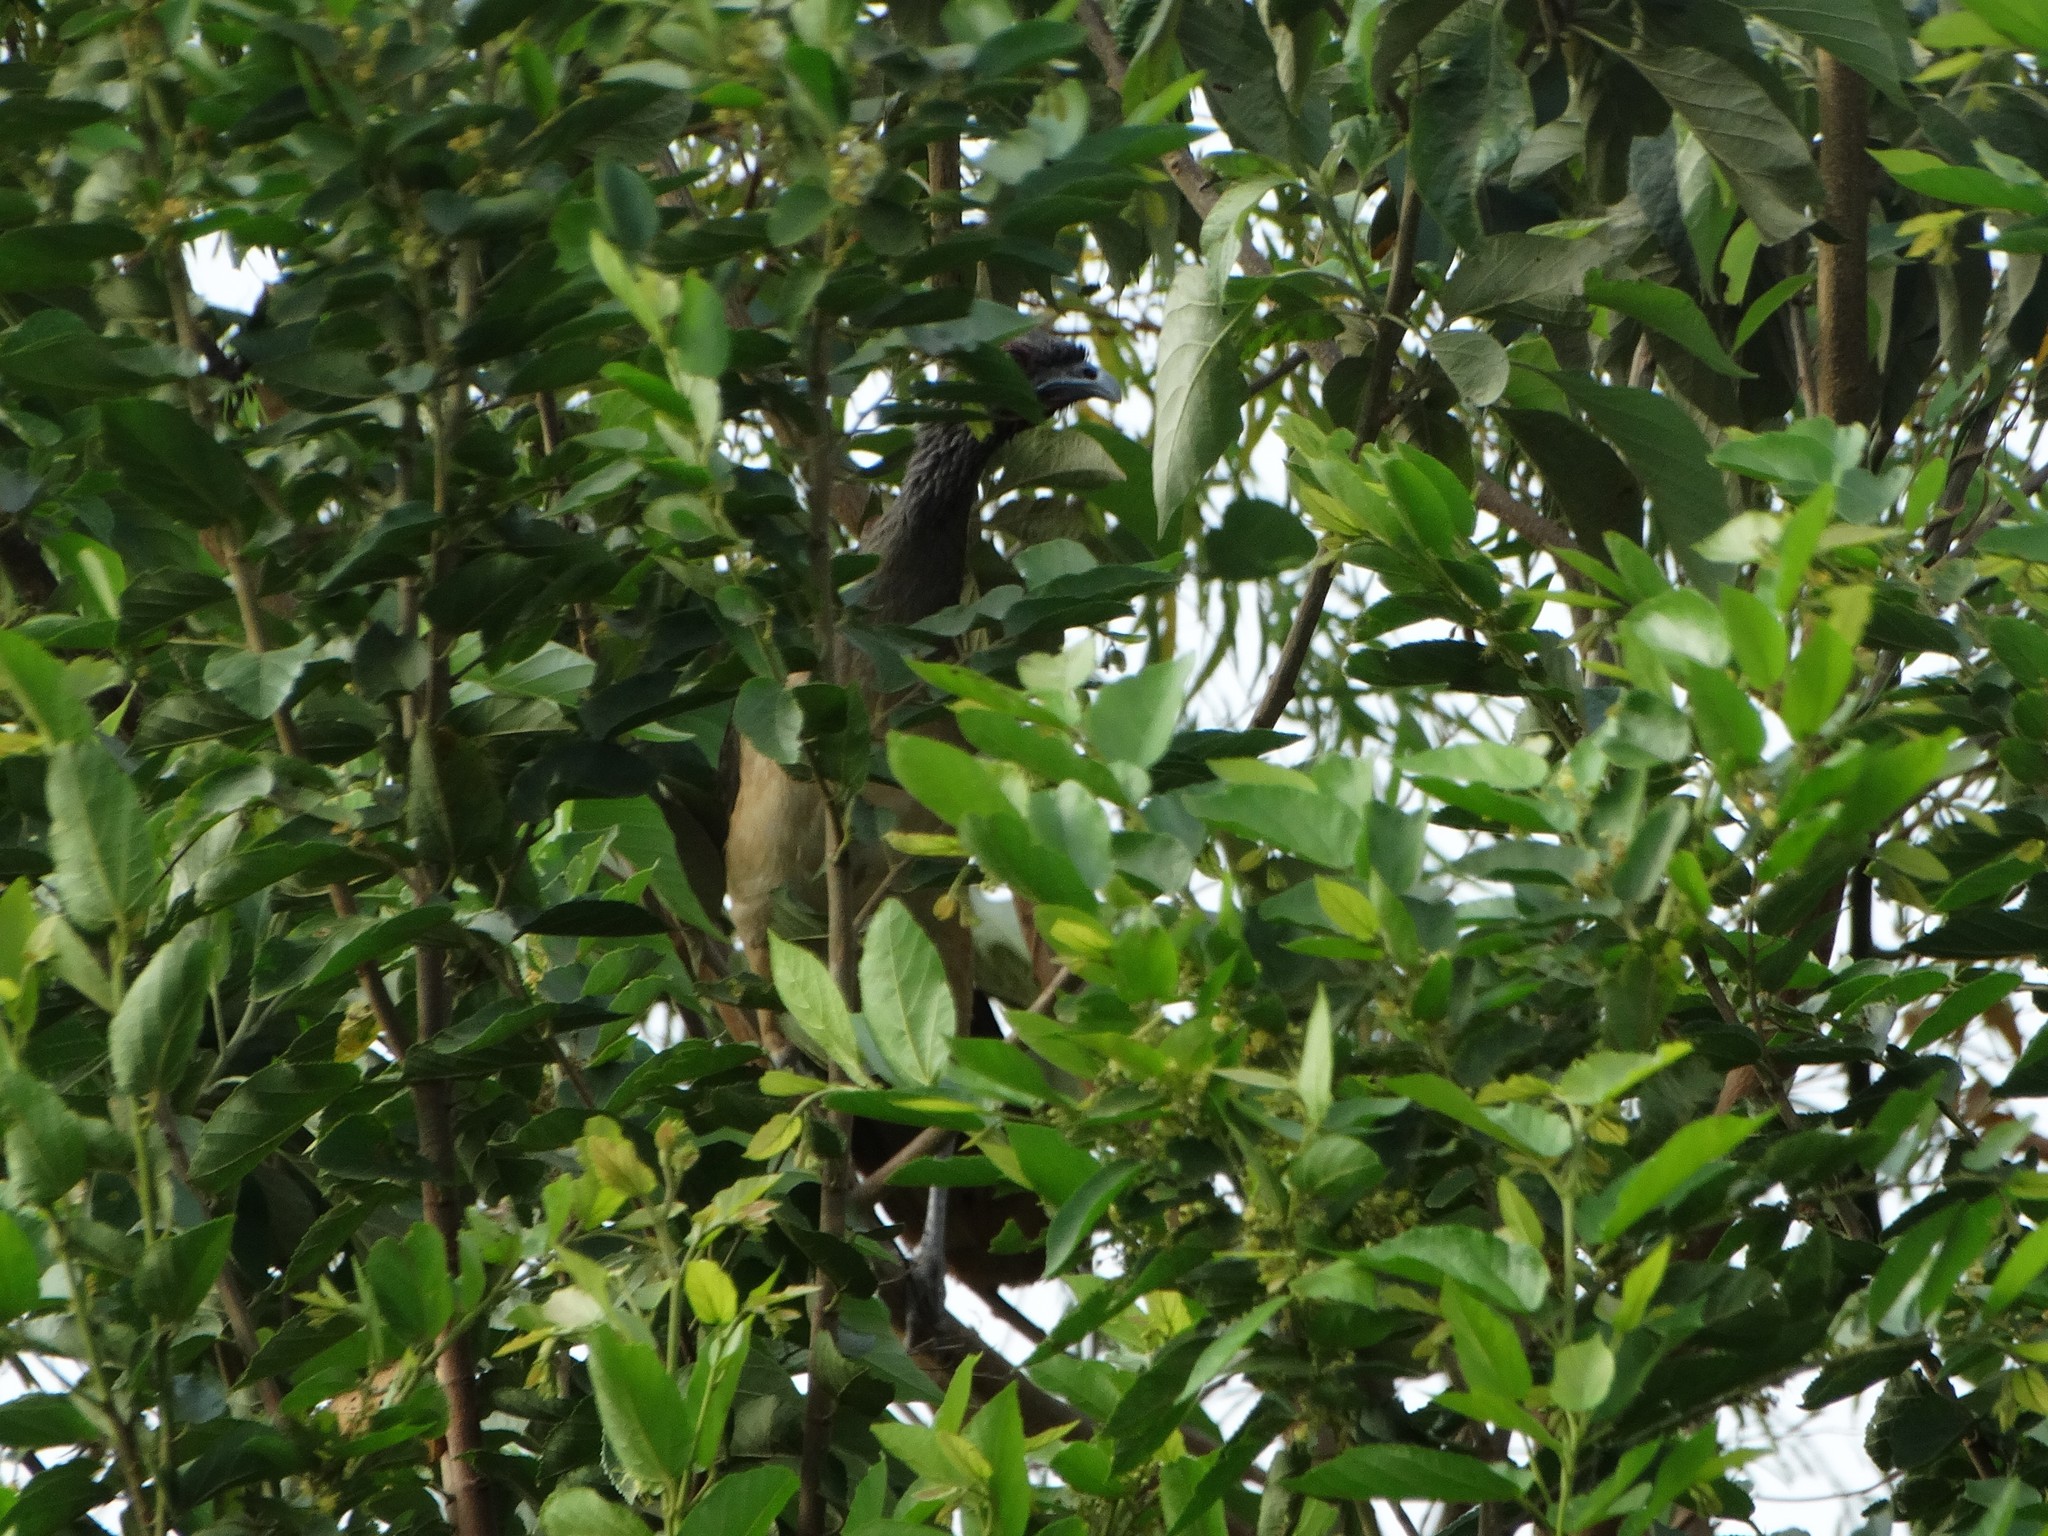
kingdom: Animalia
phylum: Chordata
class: Aves
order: Galliformes
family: Cracidae
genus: Ortalis
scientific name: Ortalis poliocephala
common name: West mexican chachalaca
